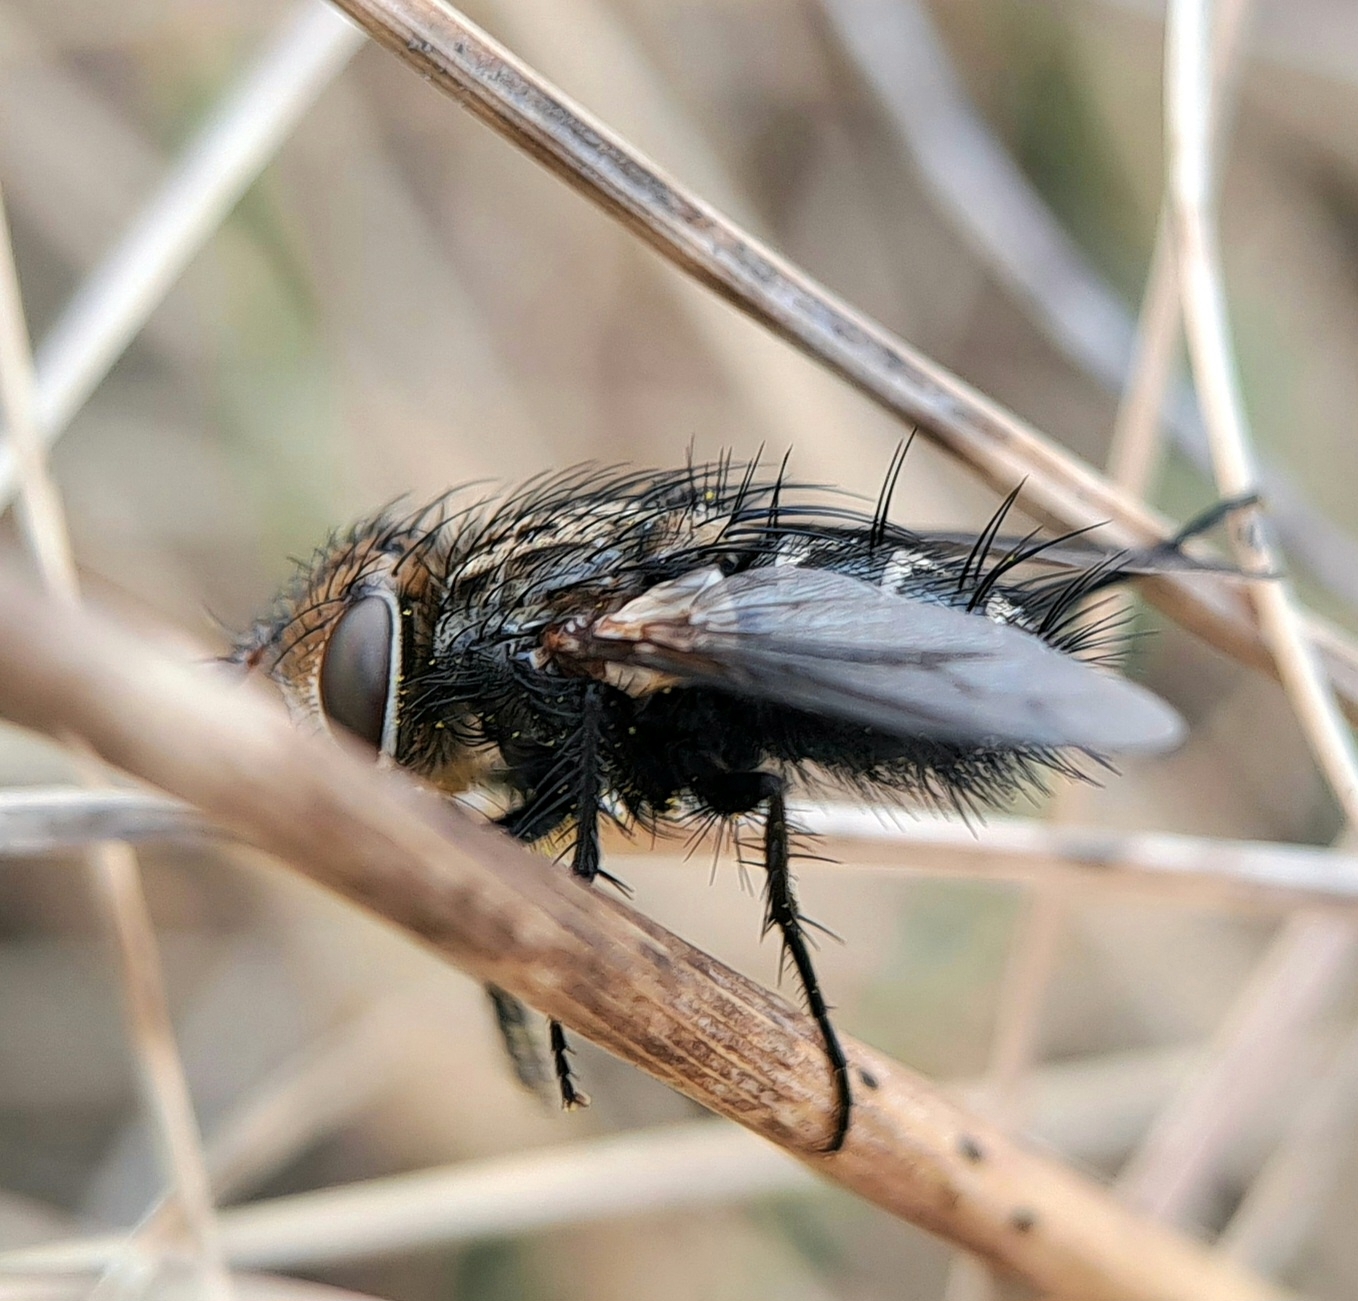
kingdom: Animalia
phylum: Arthropoda
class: Insecta
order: Diptera
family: Tachinidae
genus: Gonia
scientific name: Gonia picea
